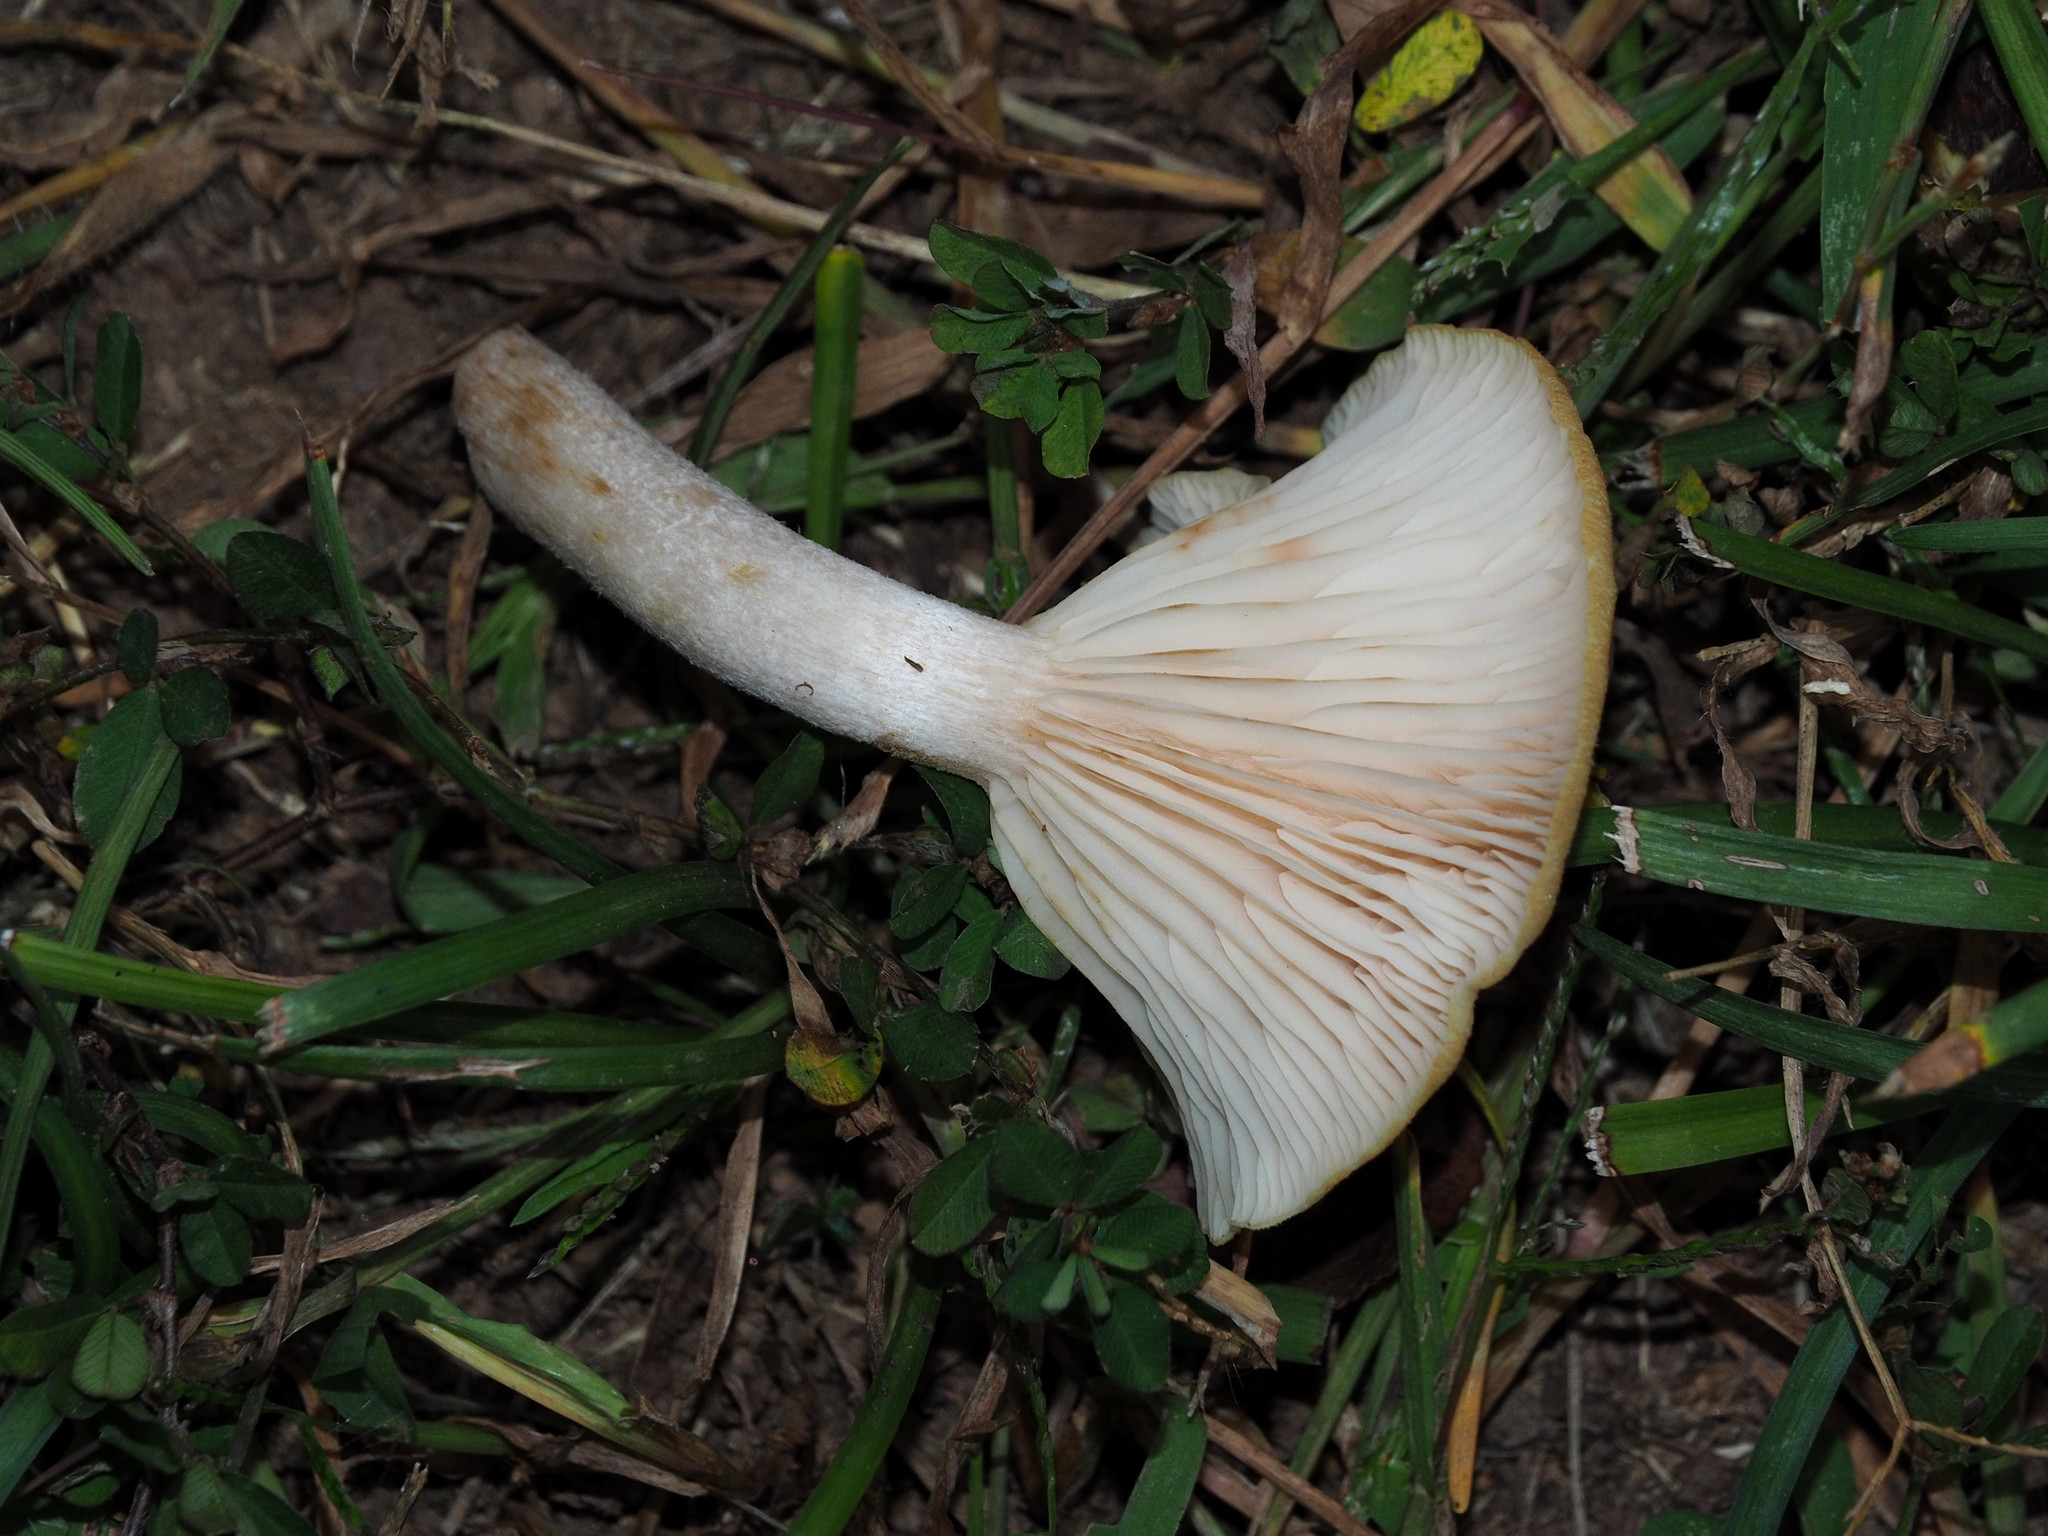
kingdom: Fungi
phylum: Basidiomycota
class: Agaricomycetes
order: Agaricales
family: Physalacriaceae
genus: Desarmillaria
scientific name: Desarmillaria caespitosa
